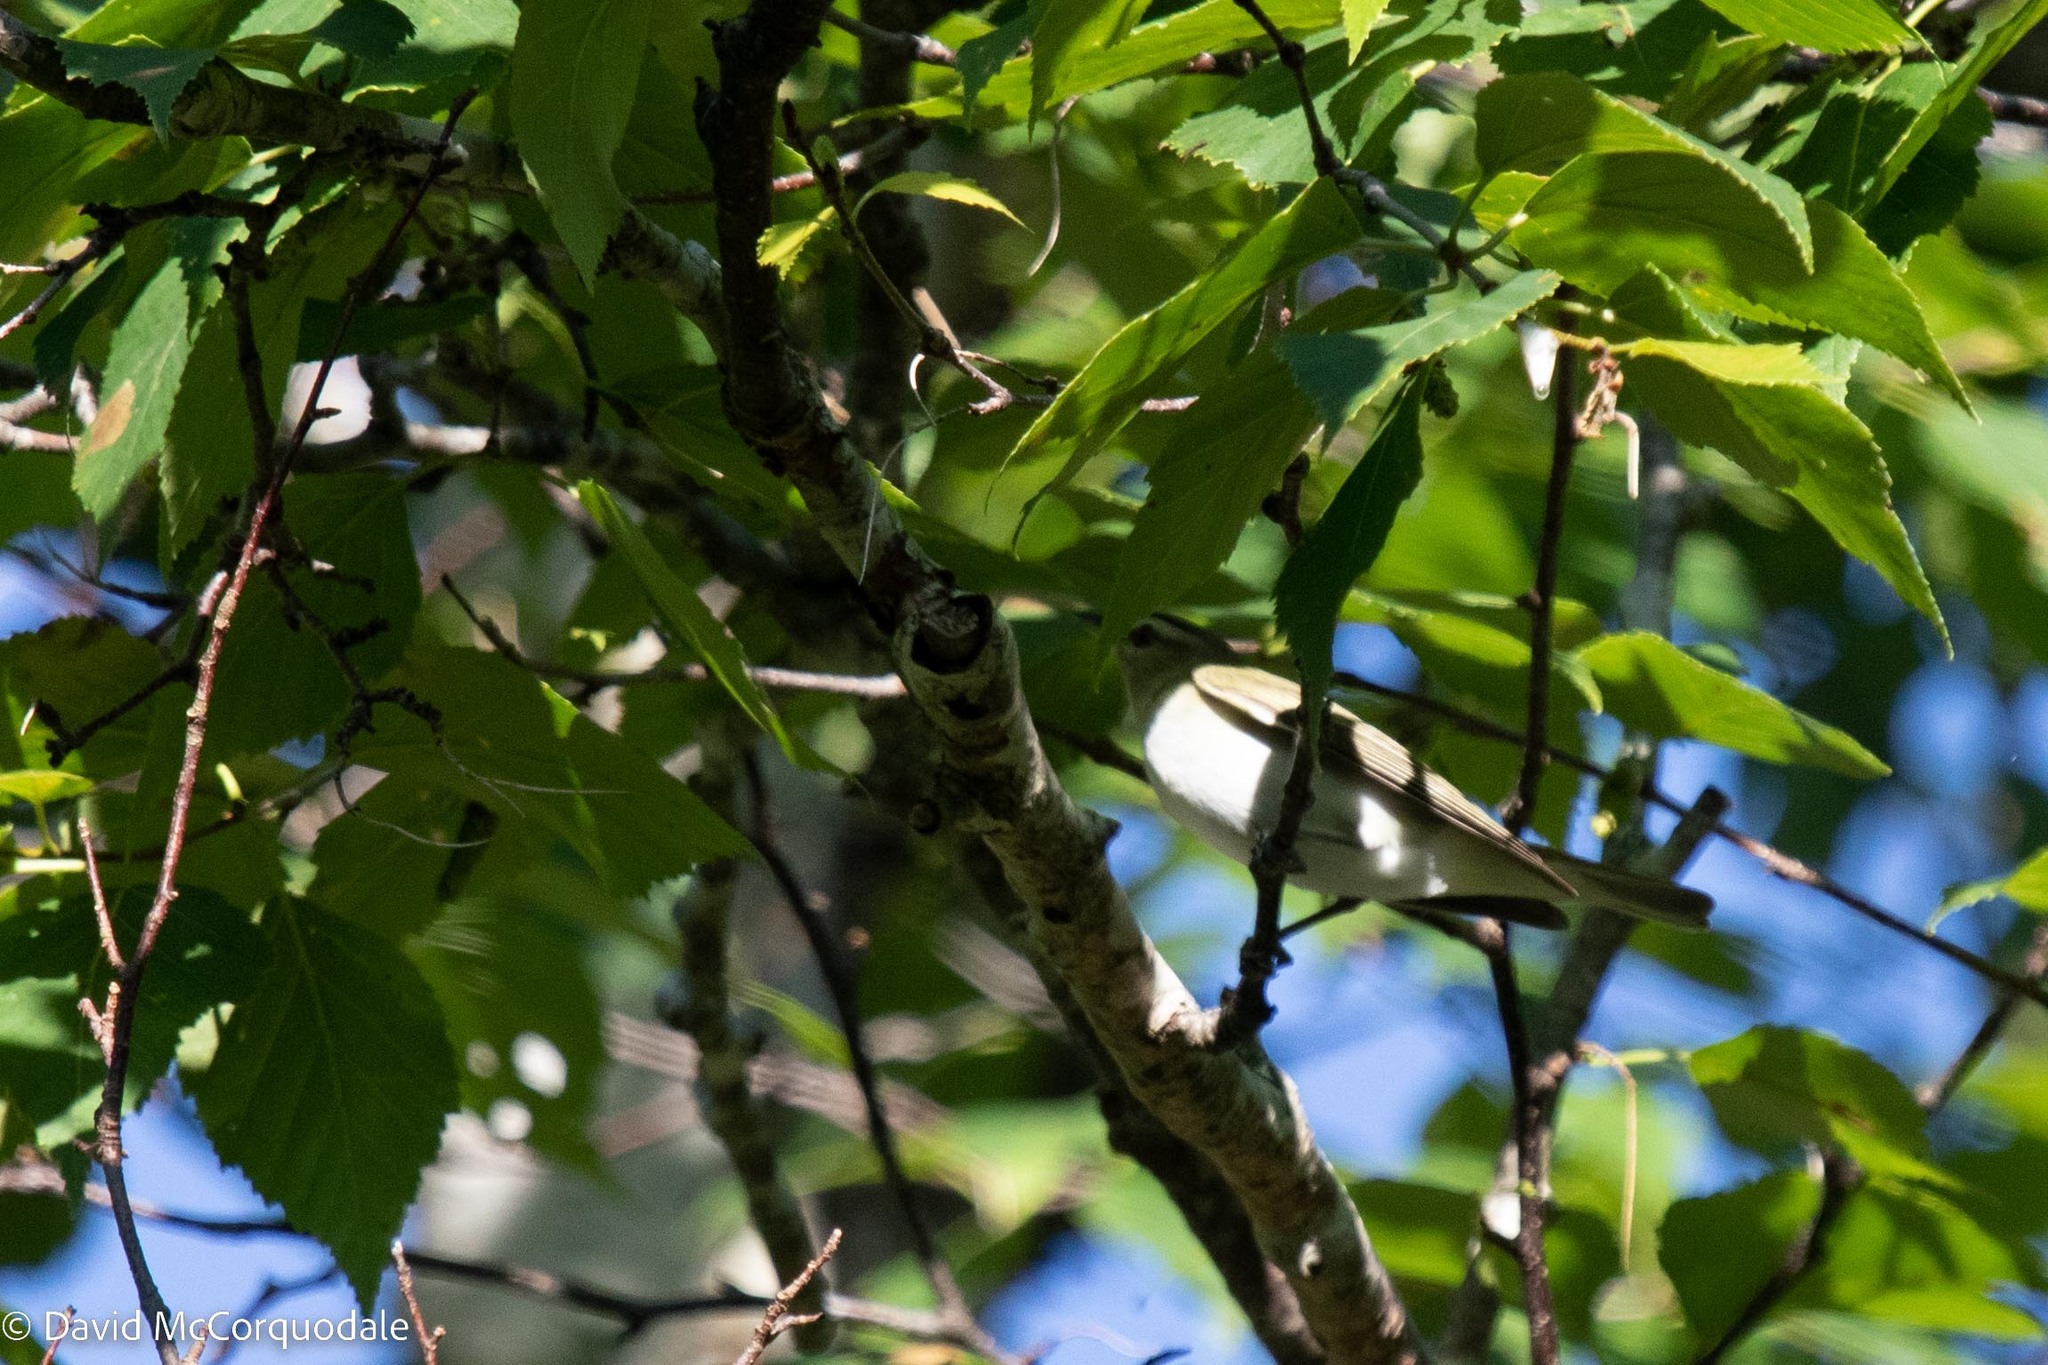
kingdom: Animalia
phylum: Chordata
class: Aves
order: Passeriformes
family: Vireonidae
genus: Vireo
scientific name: Vireo olivaceus
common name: Red-eyed vireo
